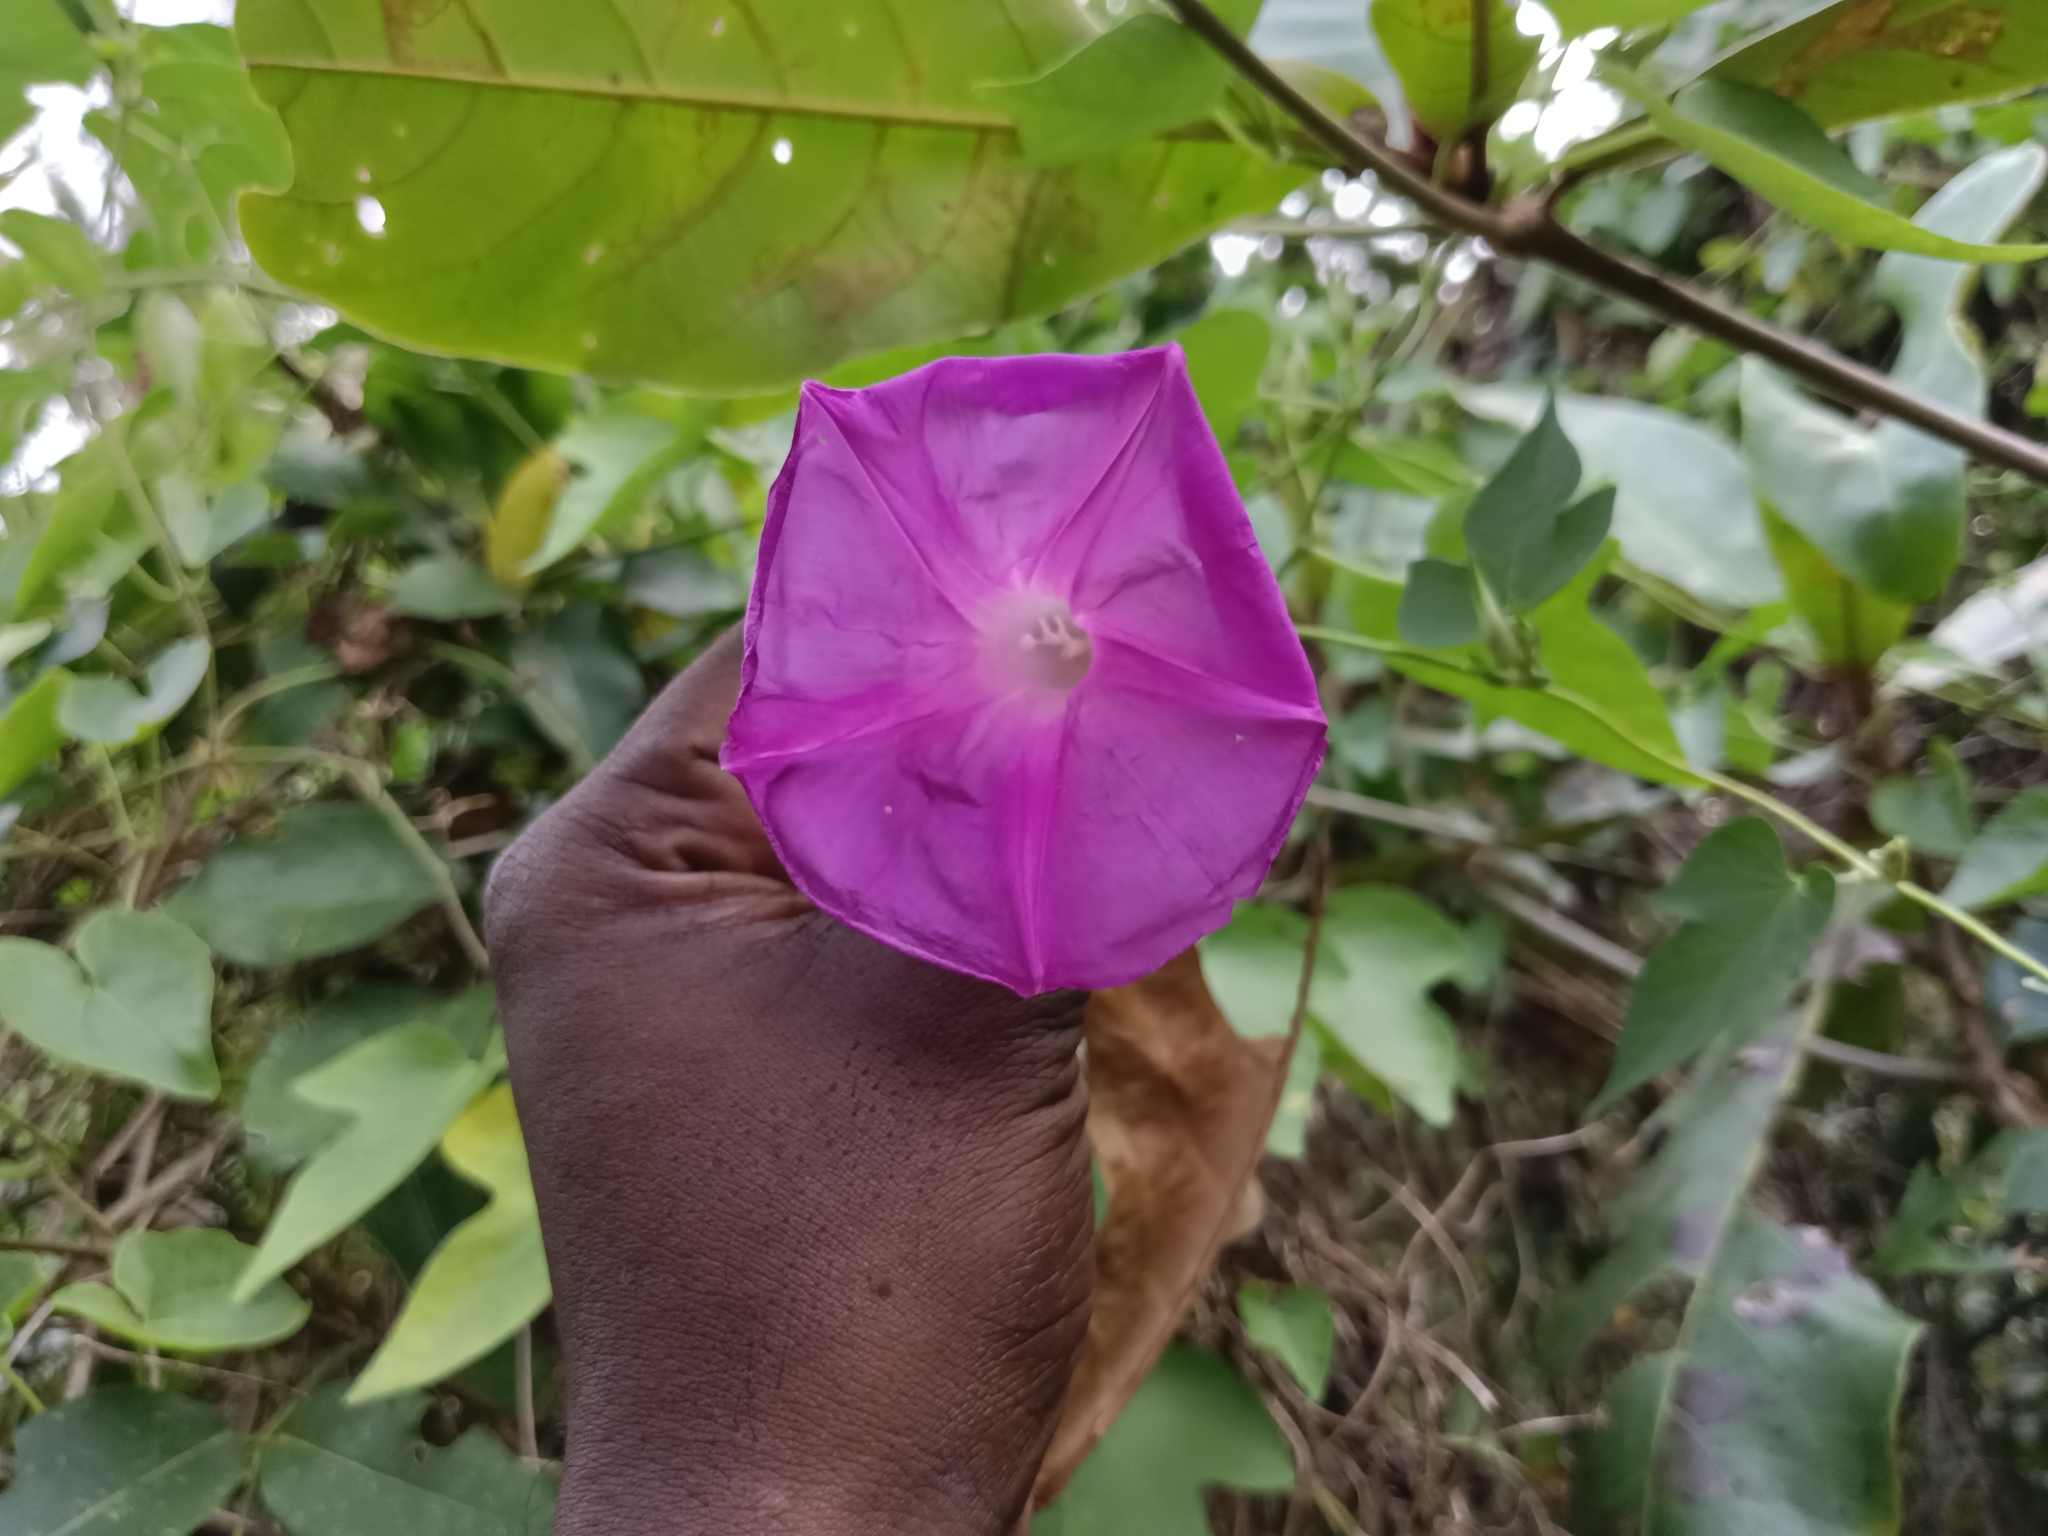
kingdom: Plantae
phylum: Tracheophyta
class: Magnoliopsida
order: Solanales
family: Convolvulaceae
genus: Ipomoea
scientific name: Ipomoea indica
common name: Blue dawnflower
